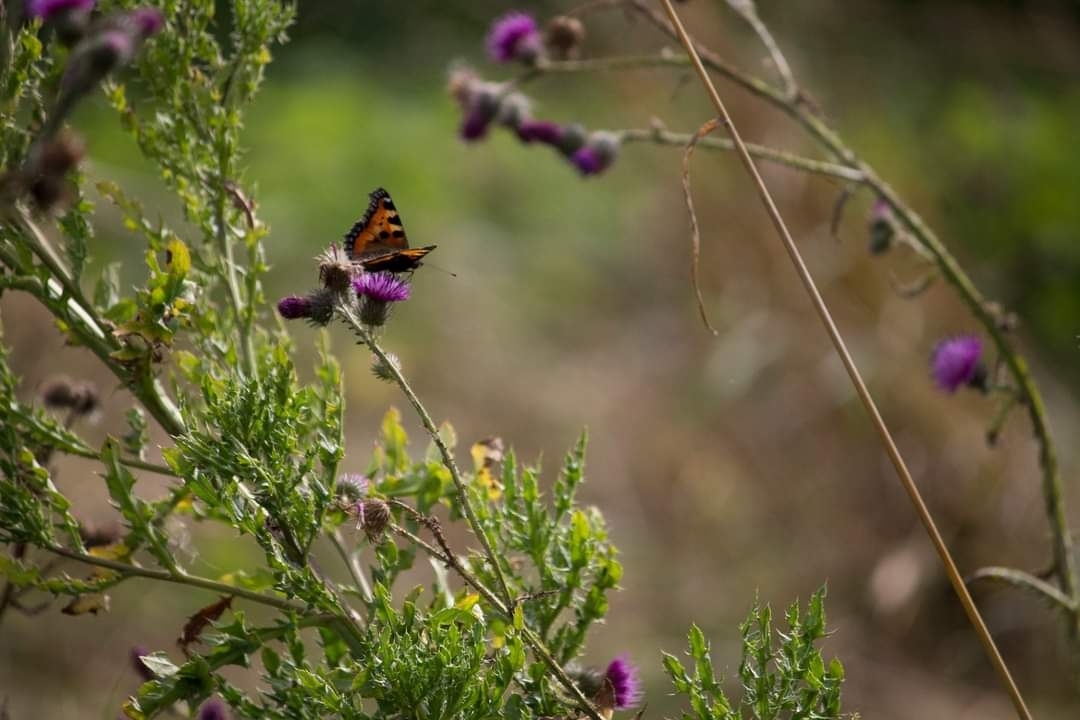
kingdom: Animalia
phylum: Arthropoda
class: Insecta
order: Lepidoptera
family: Nymphalidae
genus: Aglais
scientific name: Aglais urticae
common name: Small tortoiseshell
